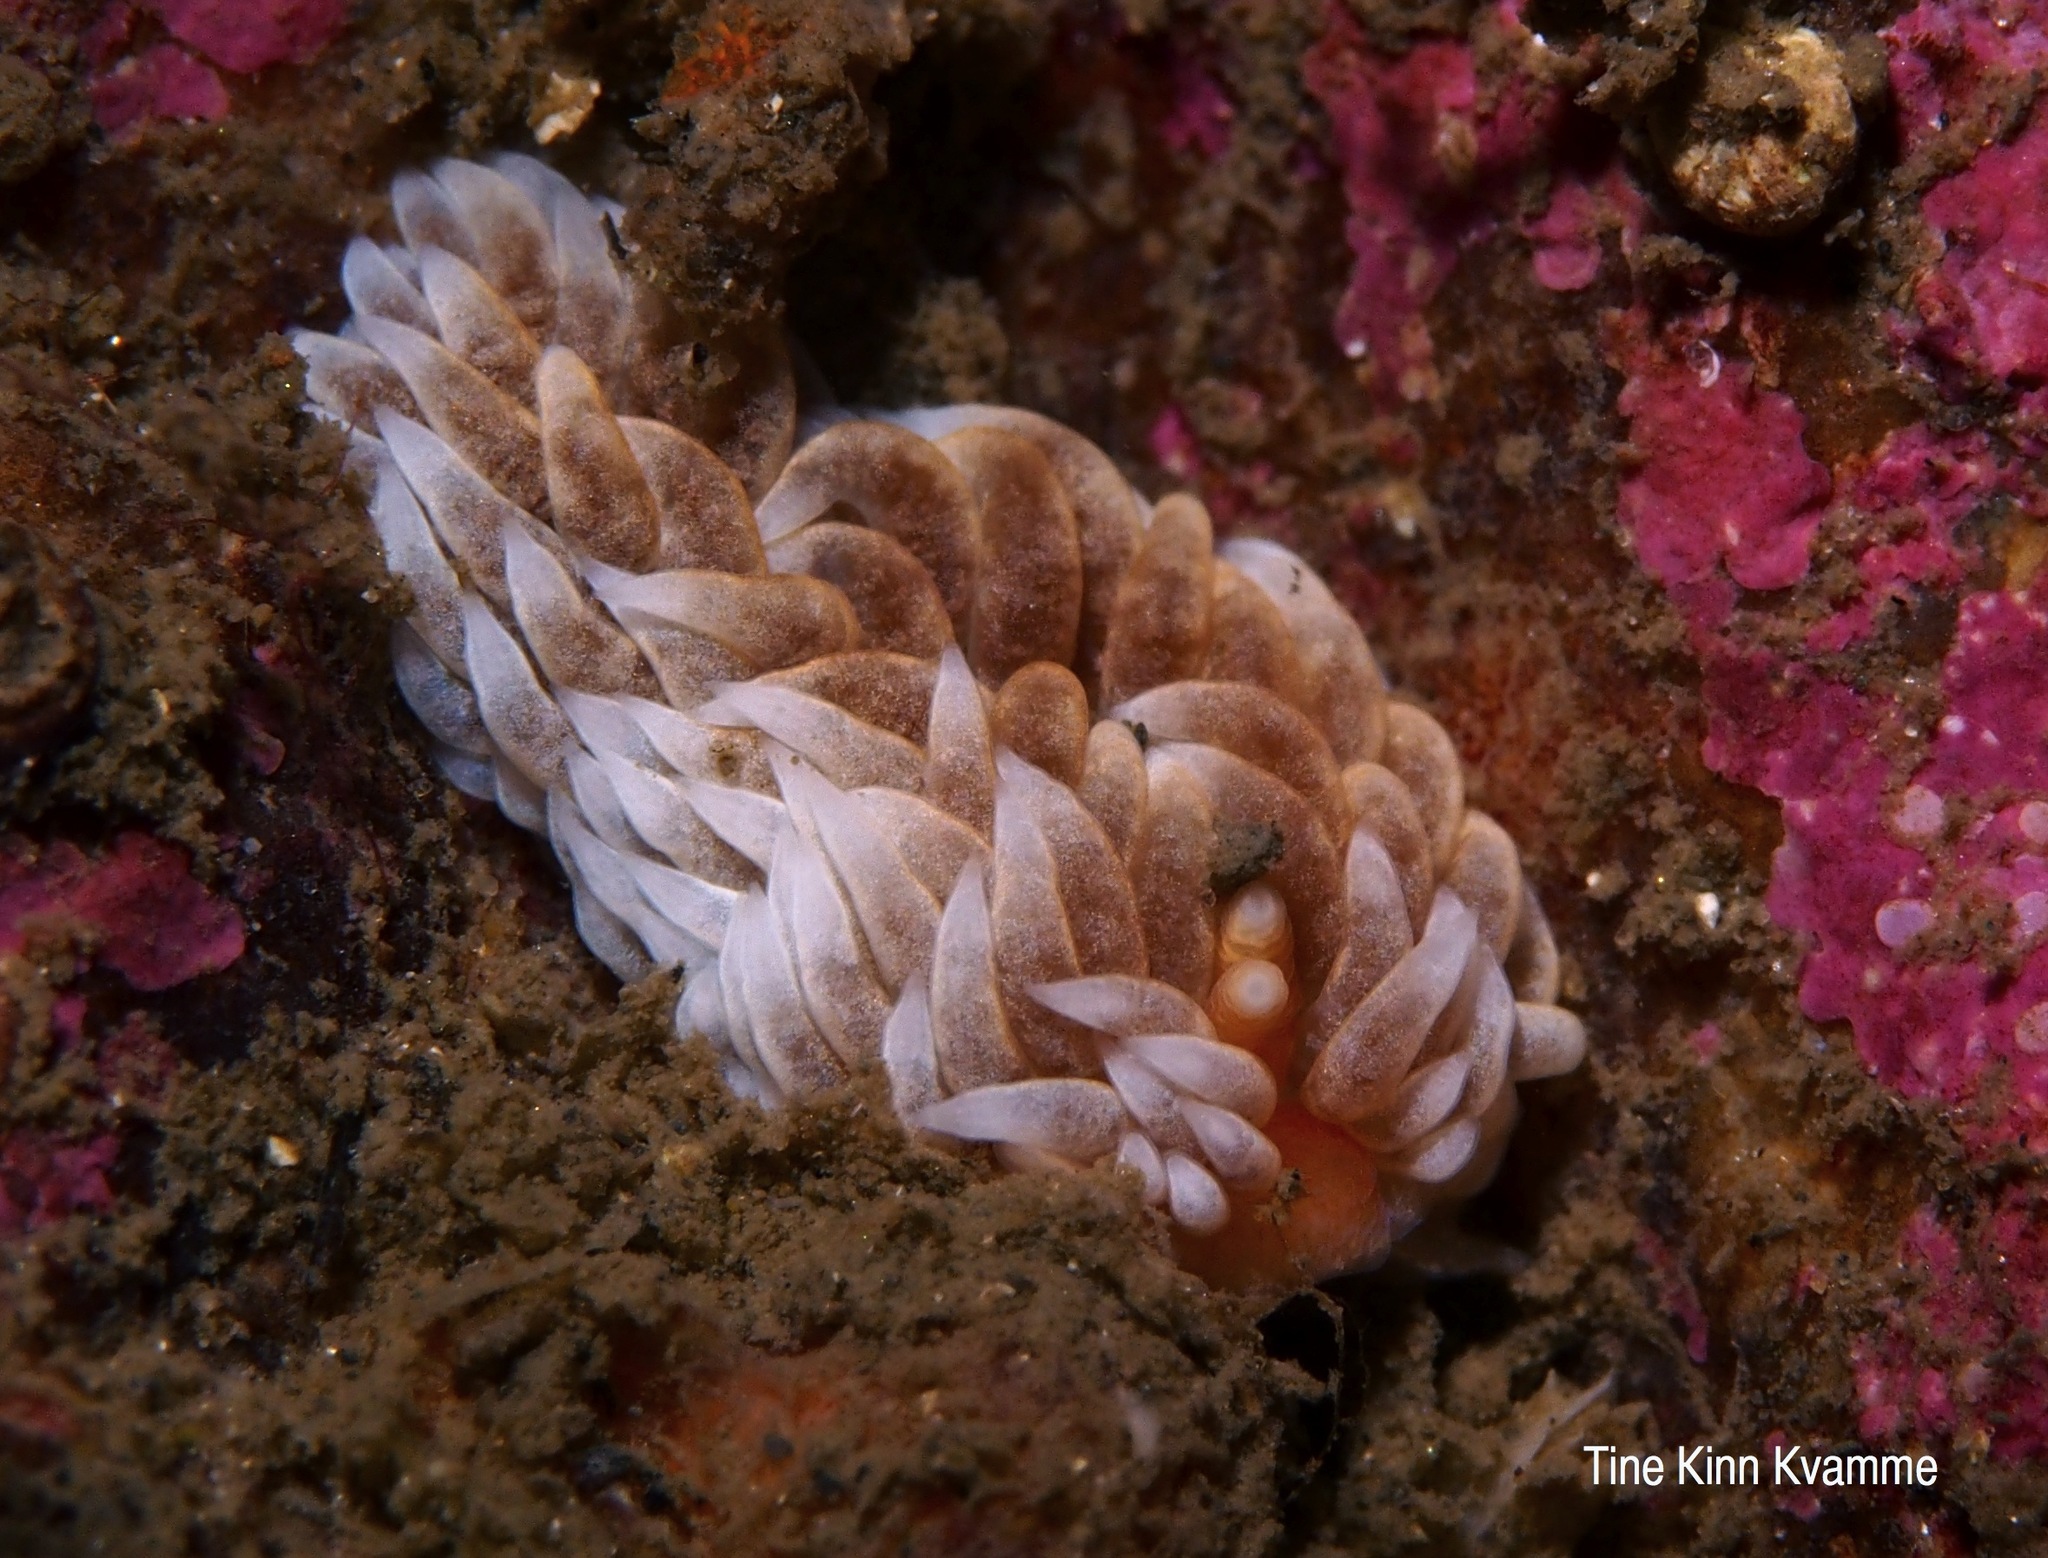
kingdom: Animalia
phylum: Mollusca
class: Gastropoda
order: Nudibranchia
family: Aeolidiidae
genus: Aeolidiella
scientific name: Aeolidiella glauca
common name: Orange-brown aeolid
